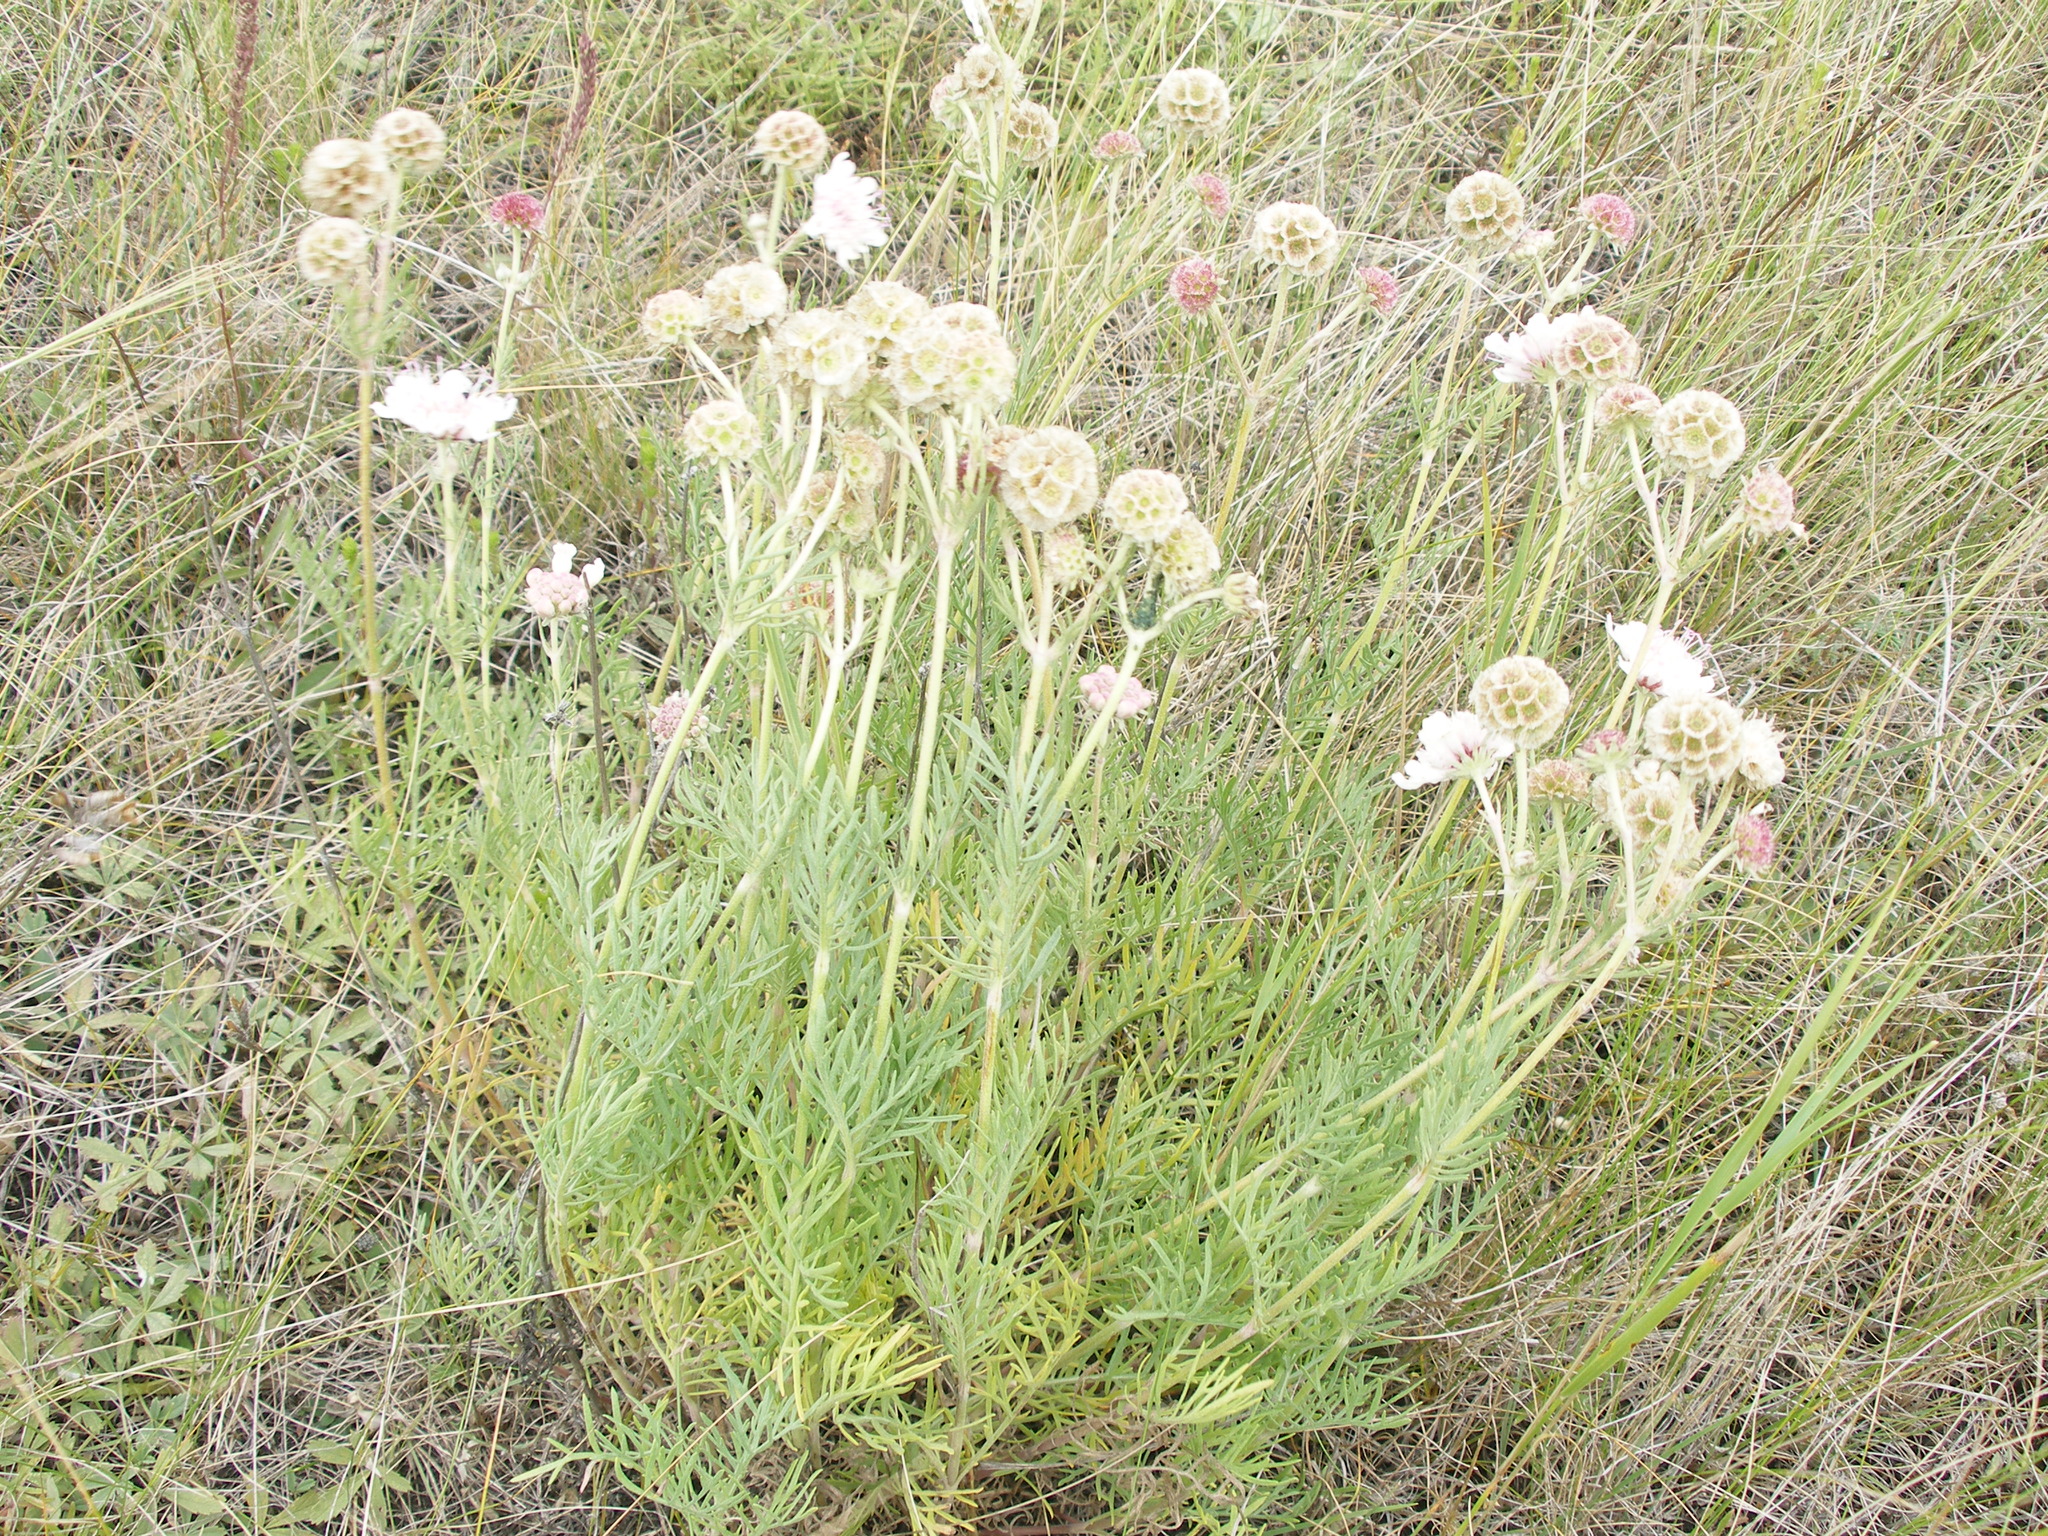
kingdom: Plantae
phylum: Tracheophyta
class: Magnoliopsida
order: Dipsacales
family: Caprifoliaceae
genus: Lomelosia
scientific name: Lomelosia isetensis
